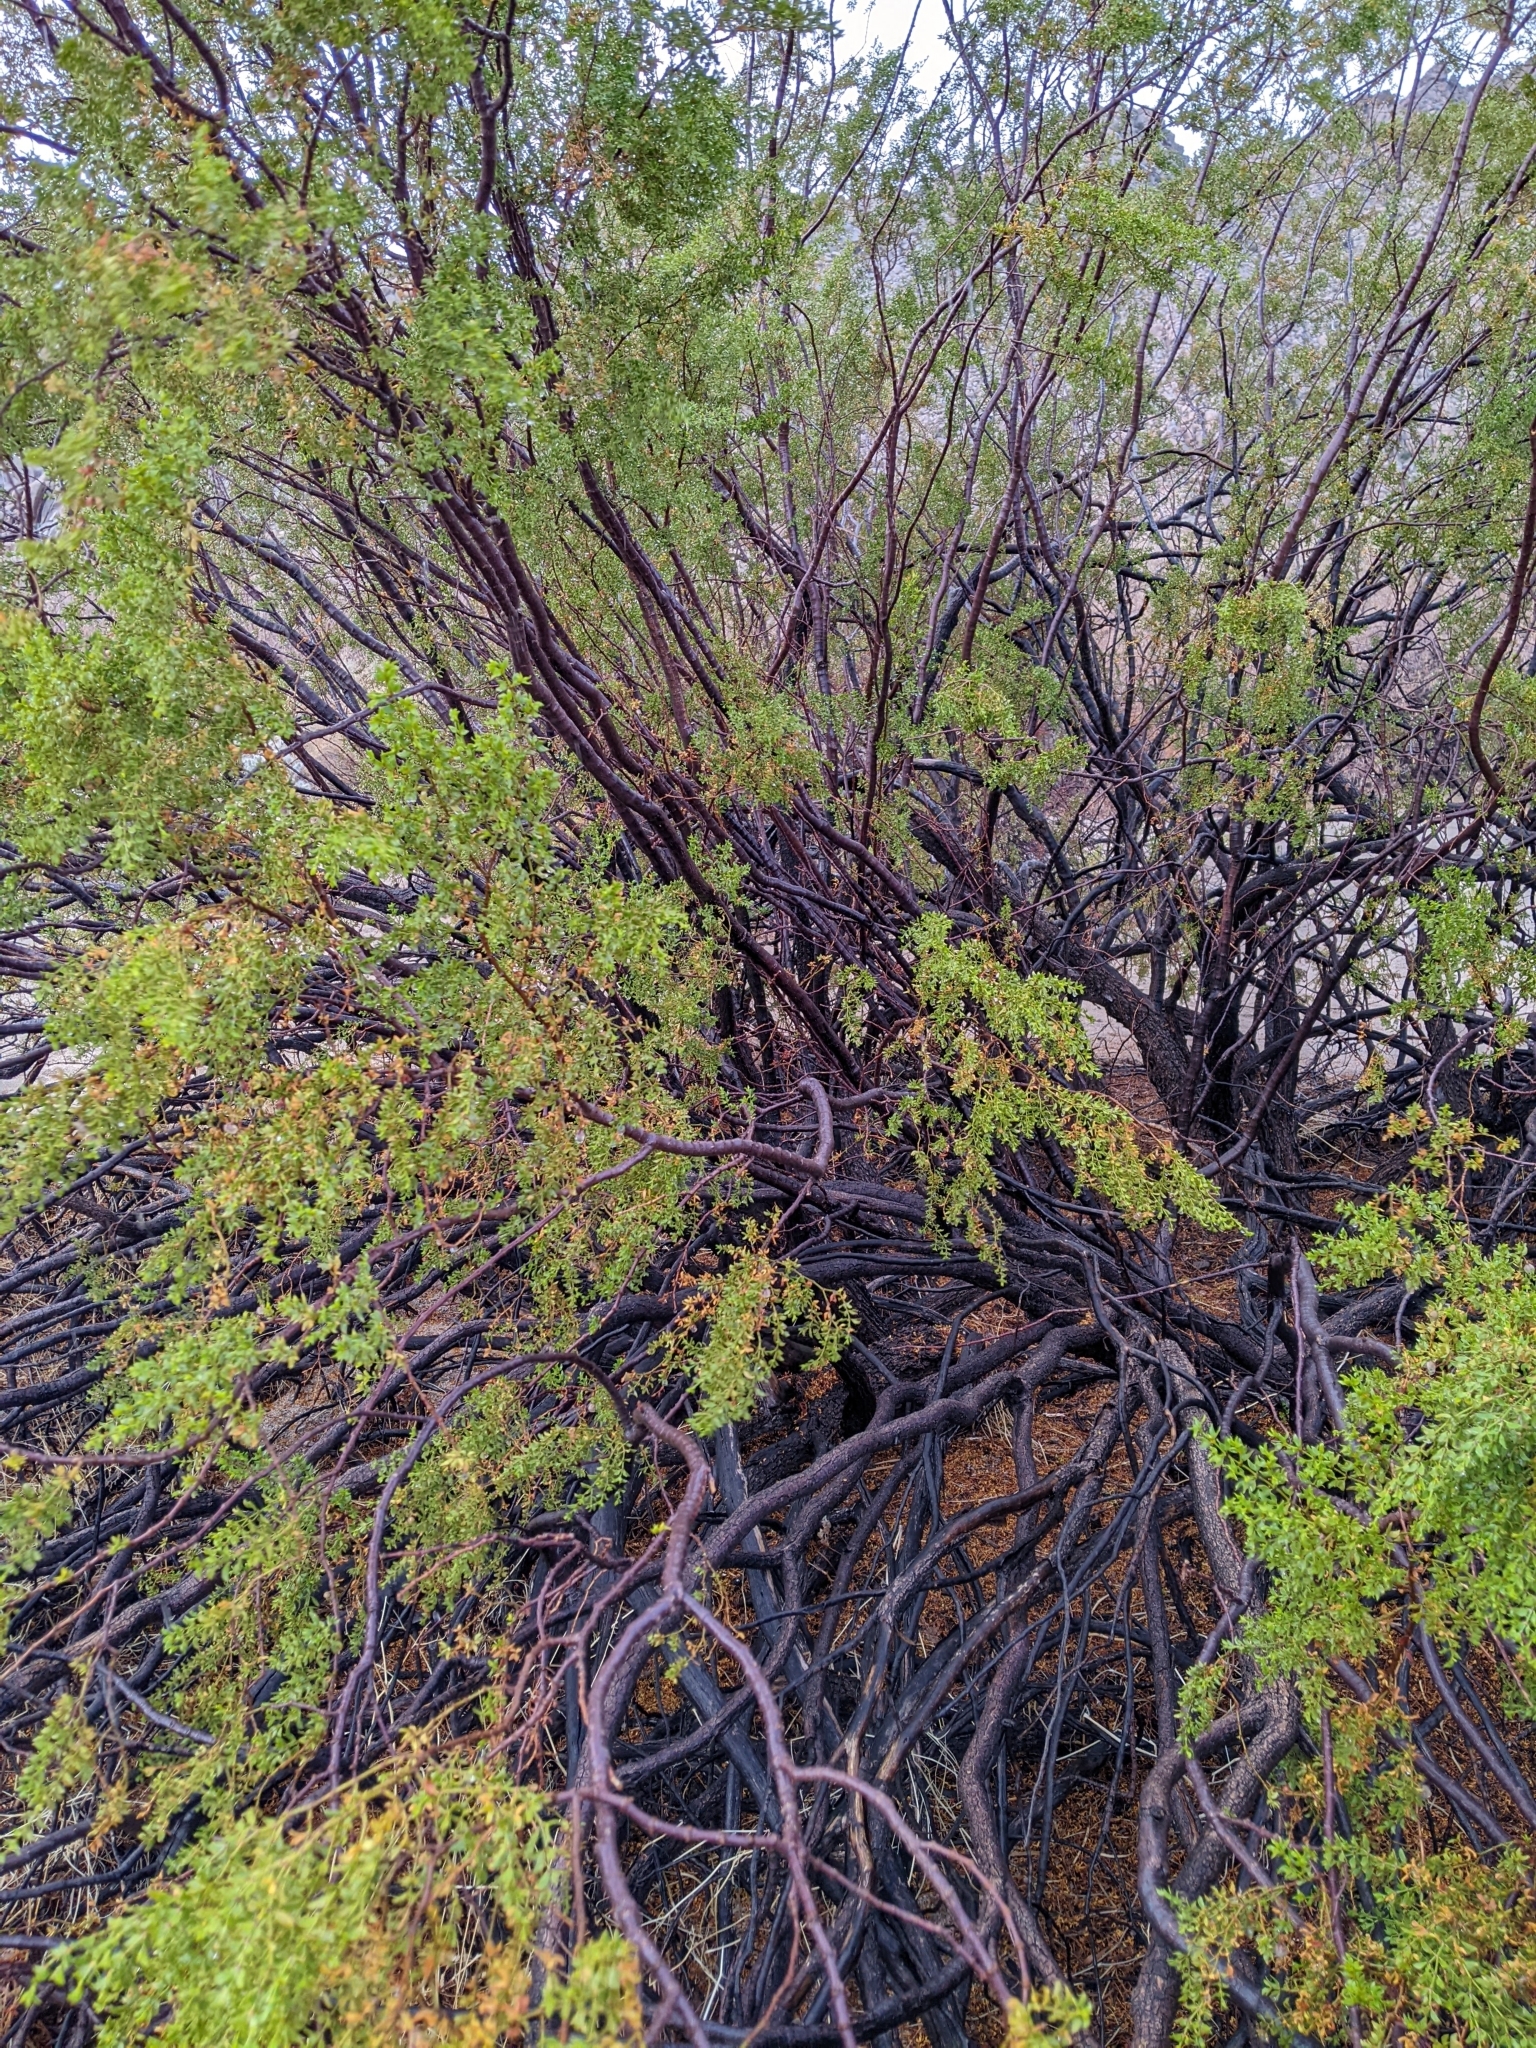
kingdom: Plantae
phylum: Tracheophyta
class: Magnoliopsida
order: Zygophyllales
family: Zygophyllaceae
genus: Larrea
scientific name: Larrea tridentata
